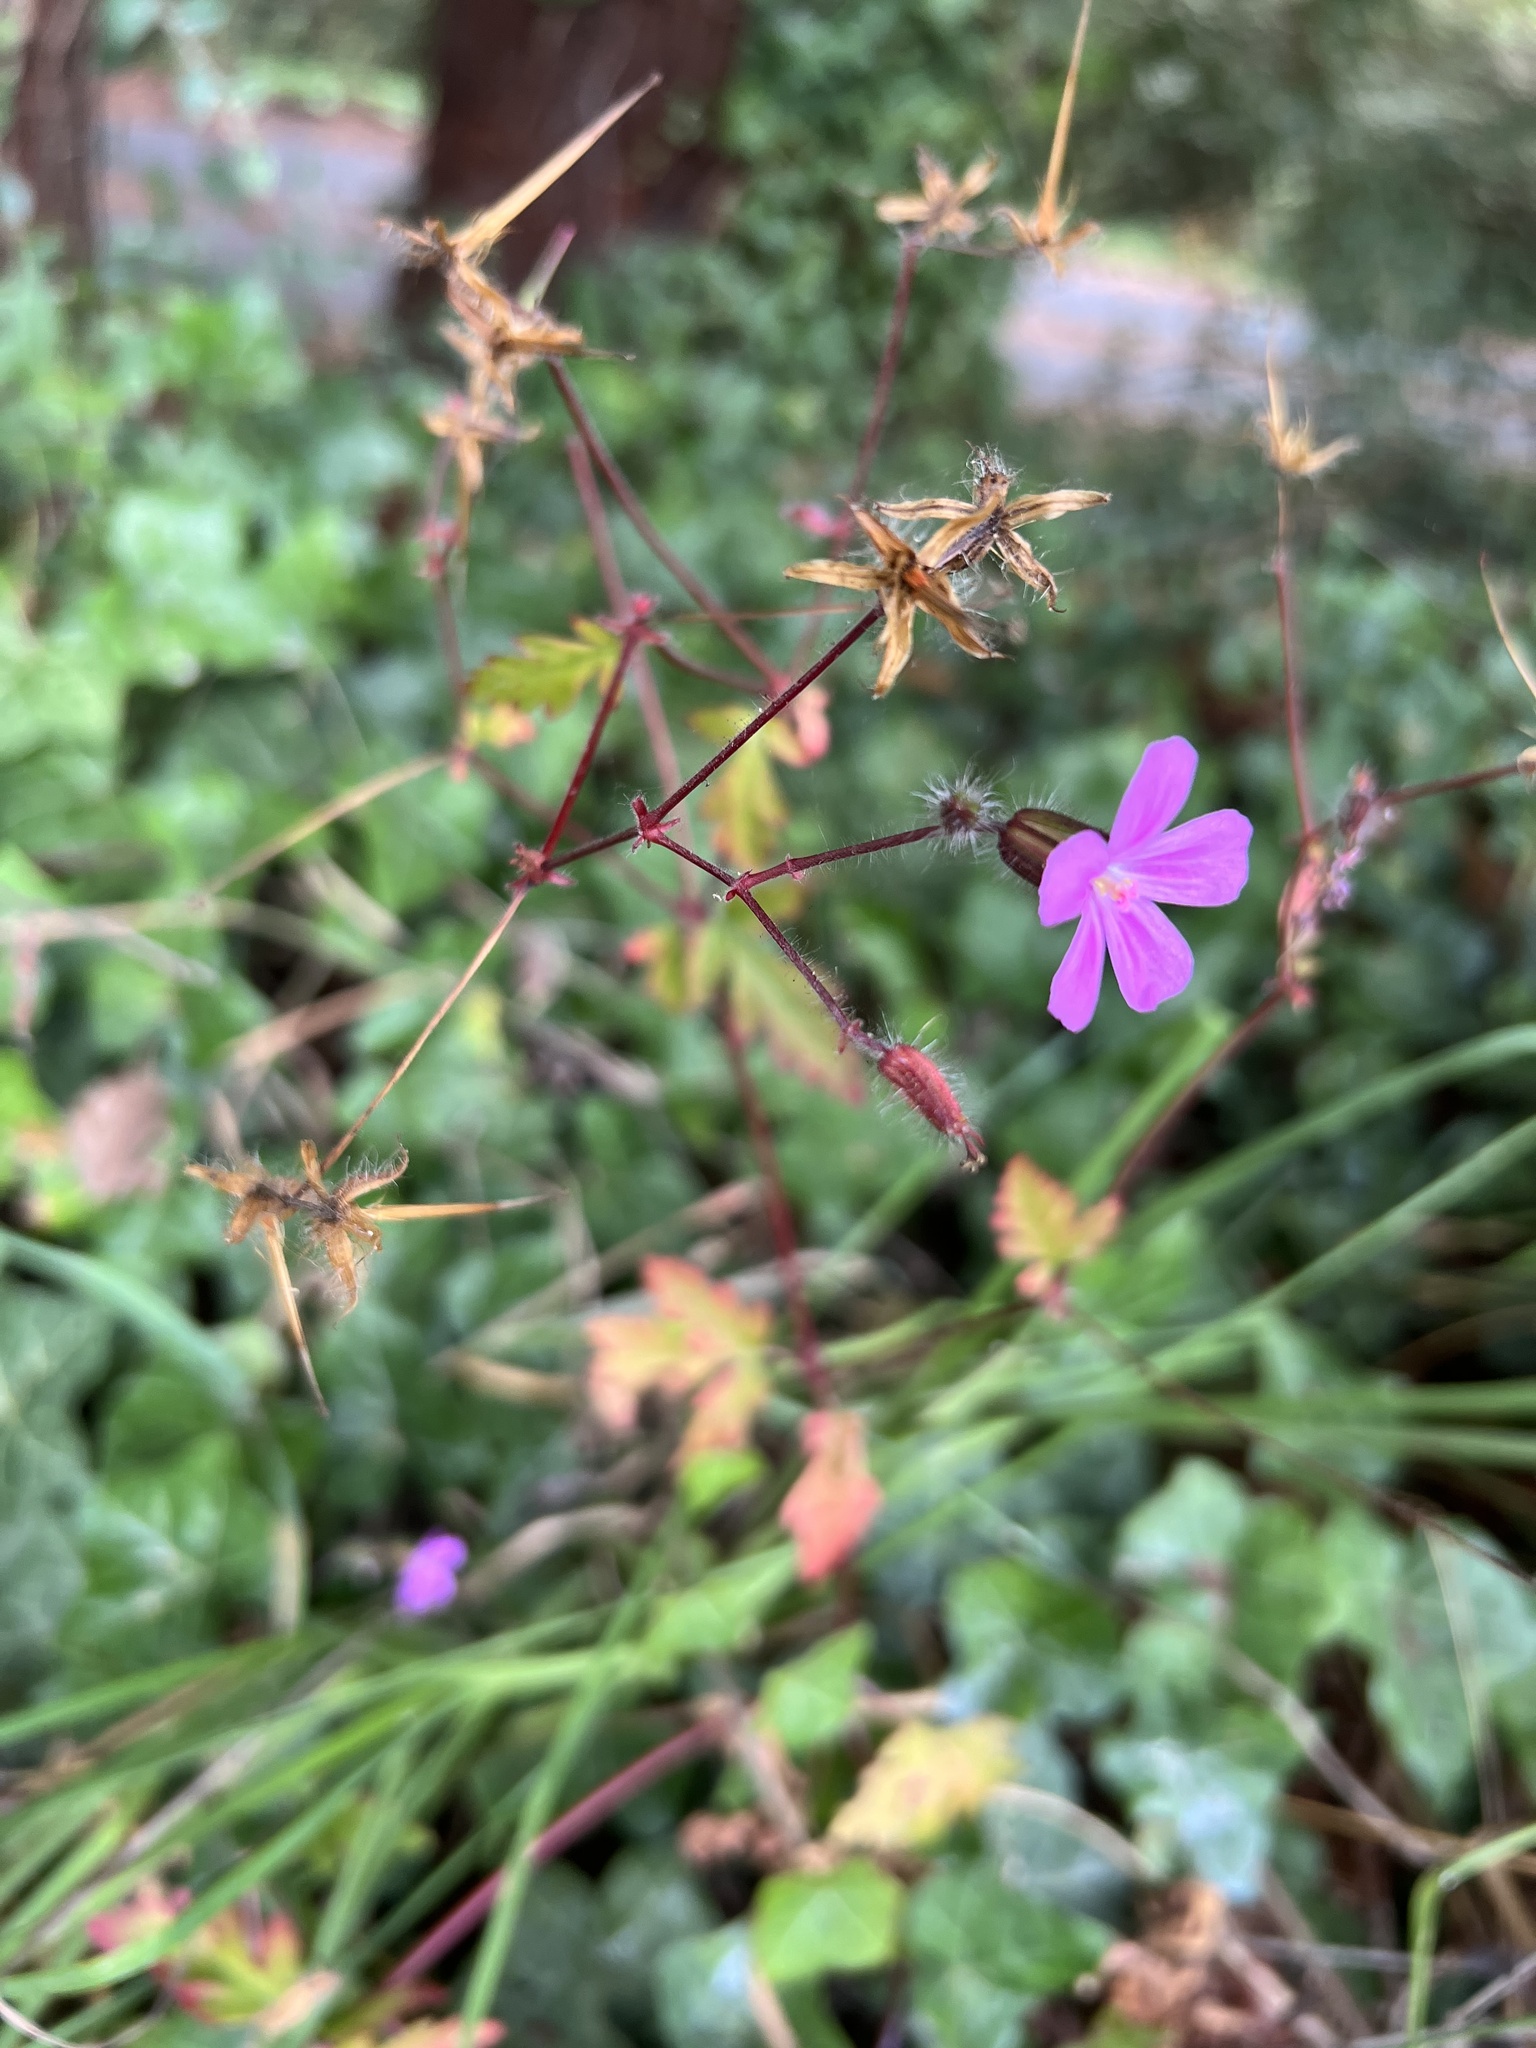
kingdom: Plantae
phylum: Tracheophyta
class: Magnoliopsida
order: Geraniales
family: Geraniaceae
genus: Geranium
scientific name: Geranium yeoi
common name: Greater herb robert
